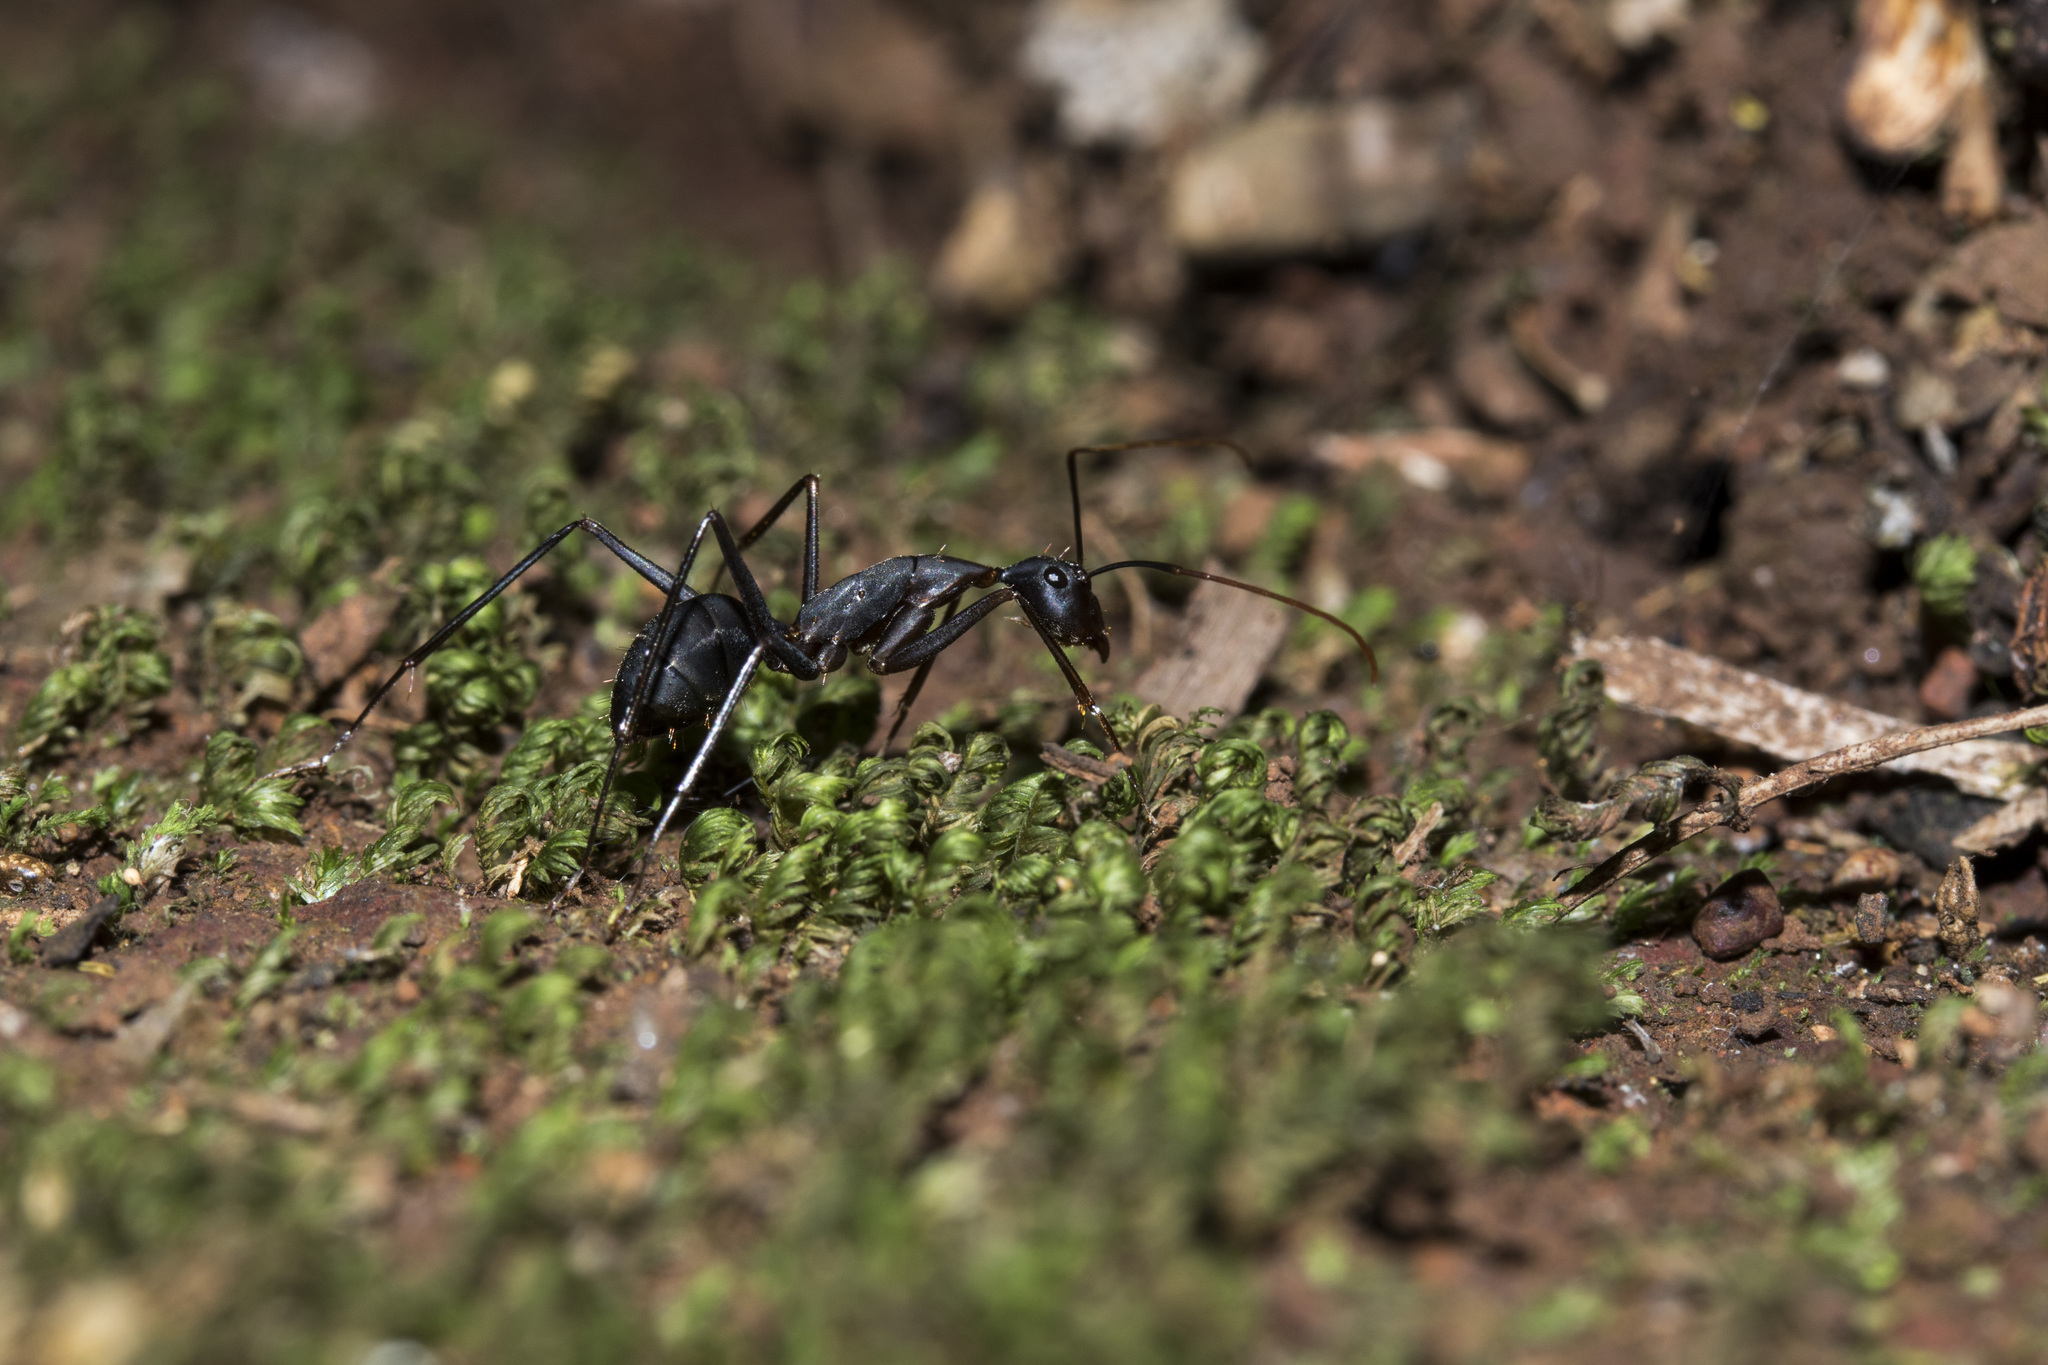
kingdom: Animalia
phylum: Arthropoda
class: Insecta
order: Hymenoptera
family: Formicidae
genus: Camponotus
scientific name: Camponotus angusticollis
